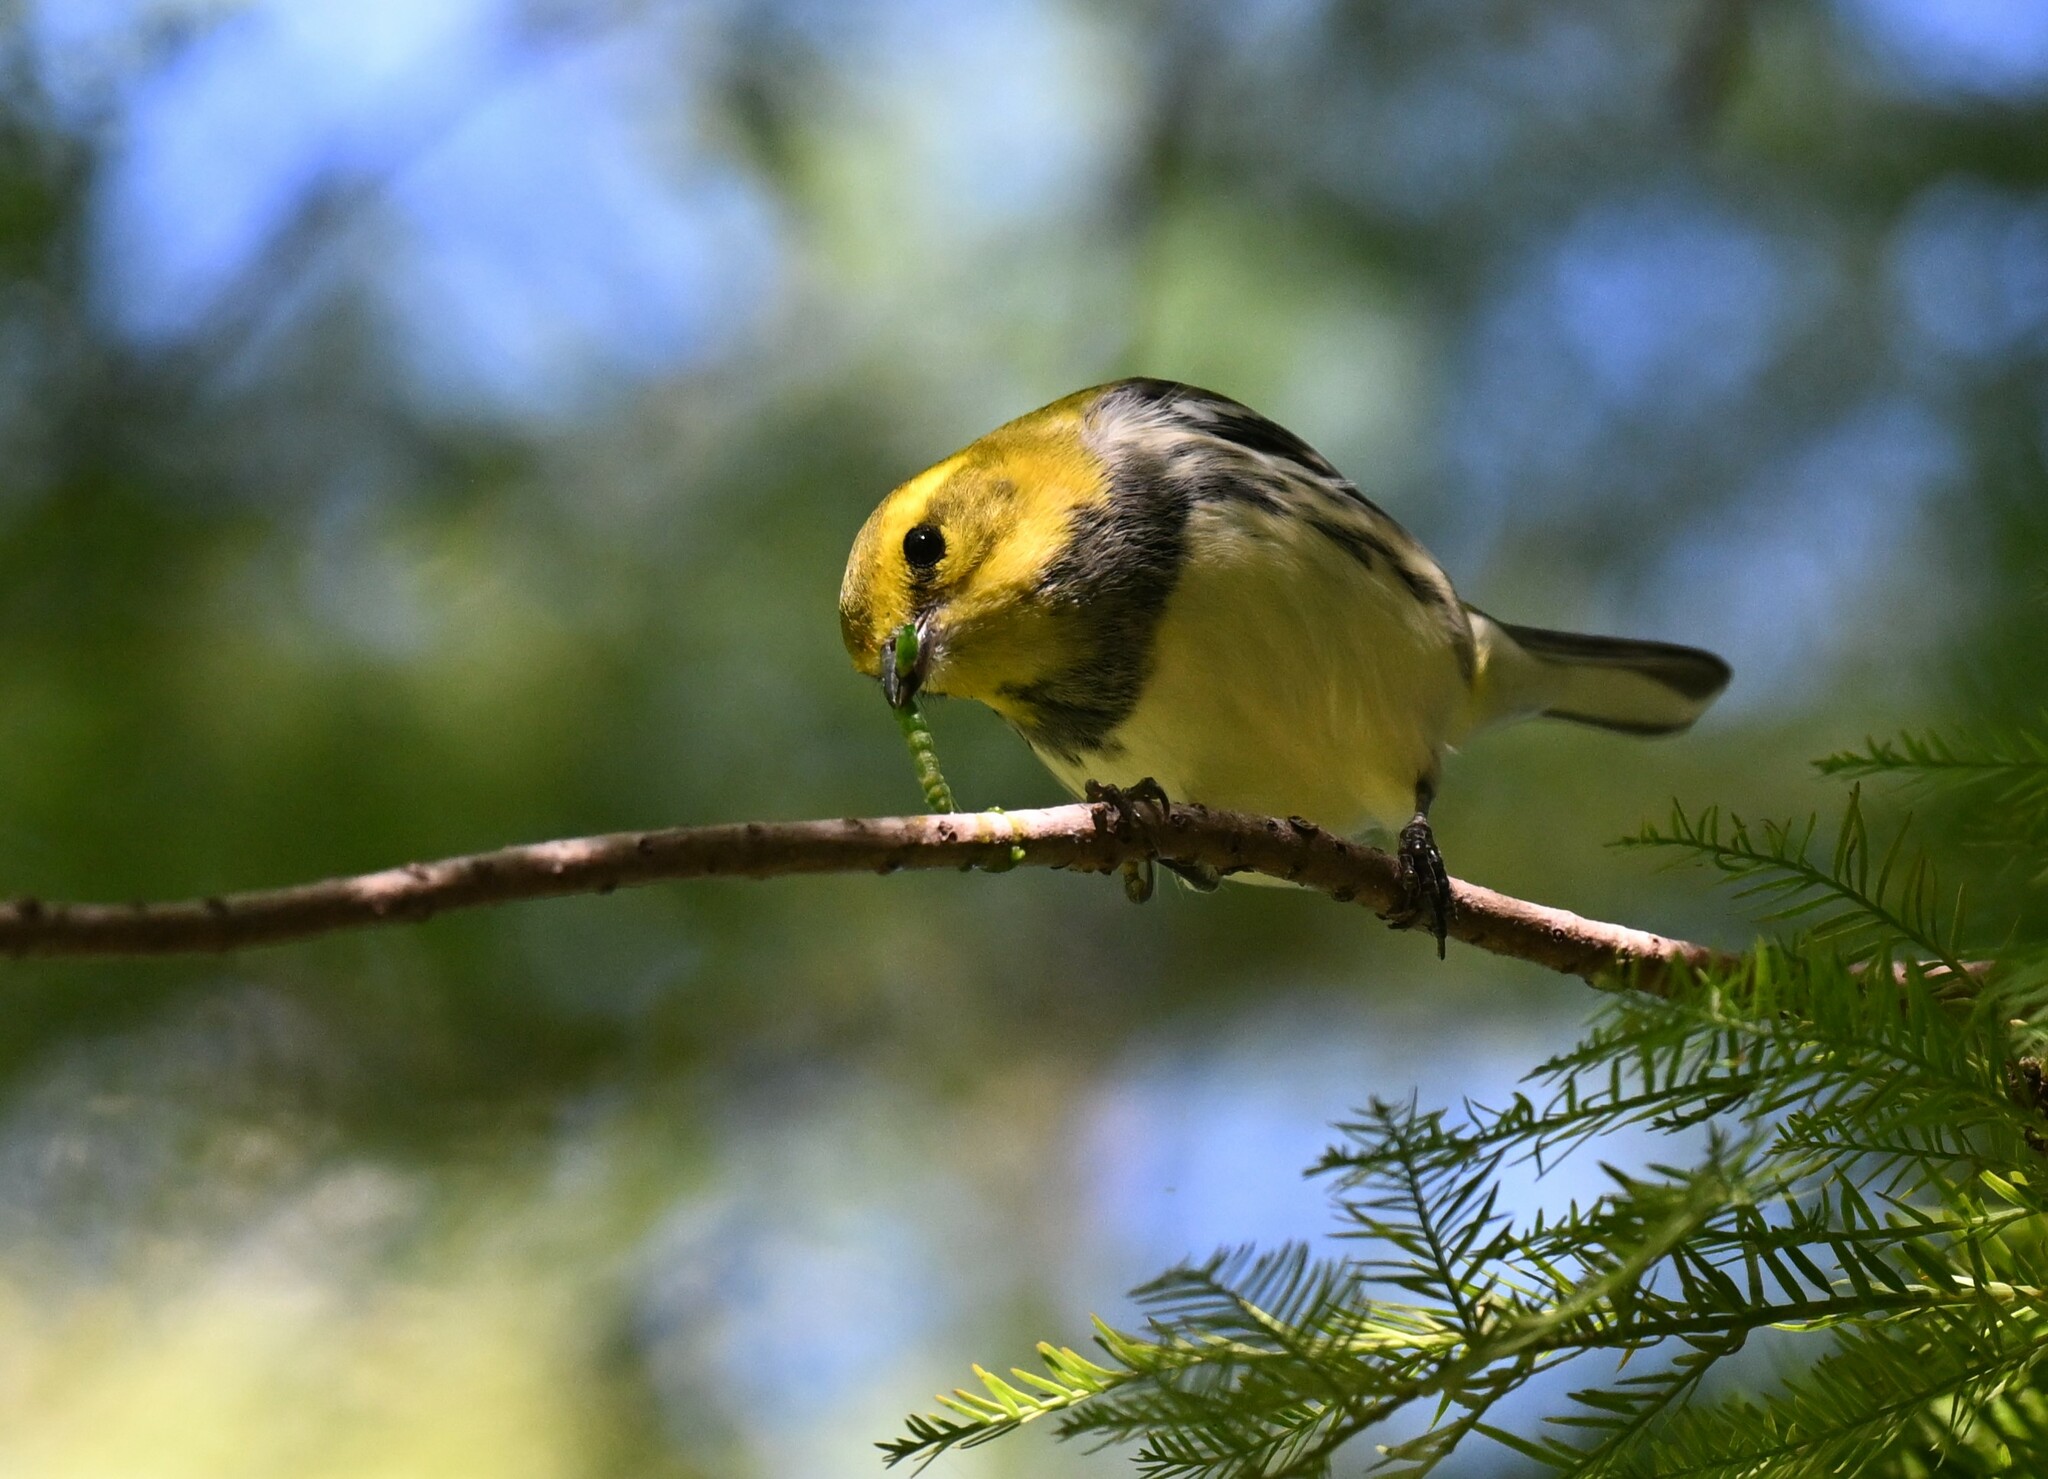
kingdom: Animalia
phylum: Chordata
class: Aves
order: Passeriformes
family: Parulidae
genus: Setophaga
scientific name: Setophaga virens
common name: Black-throated green warbler
